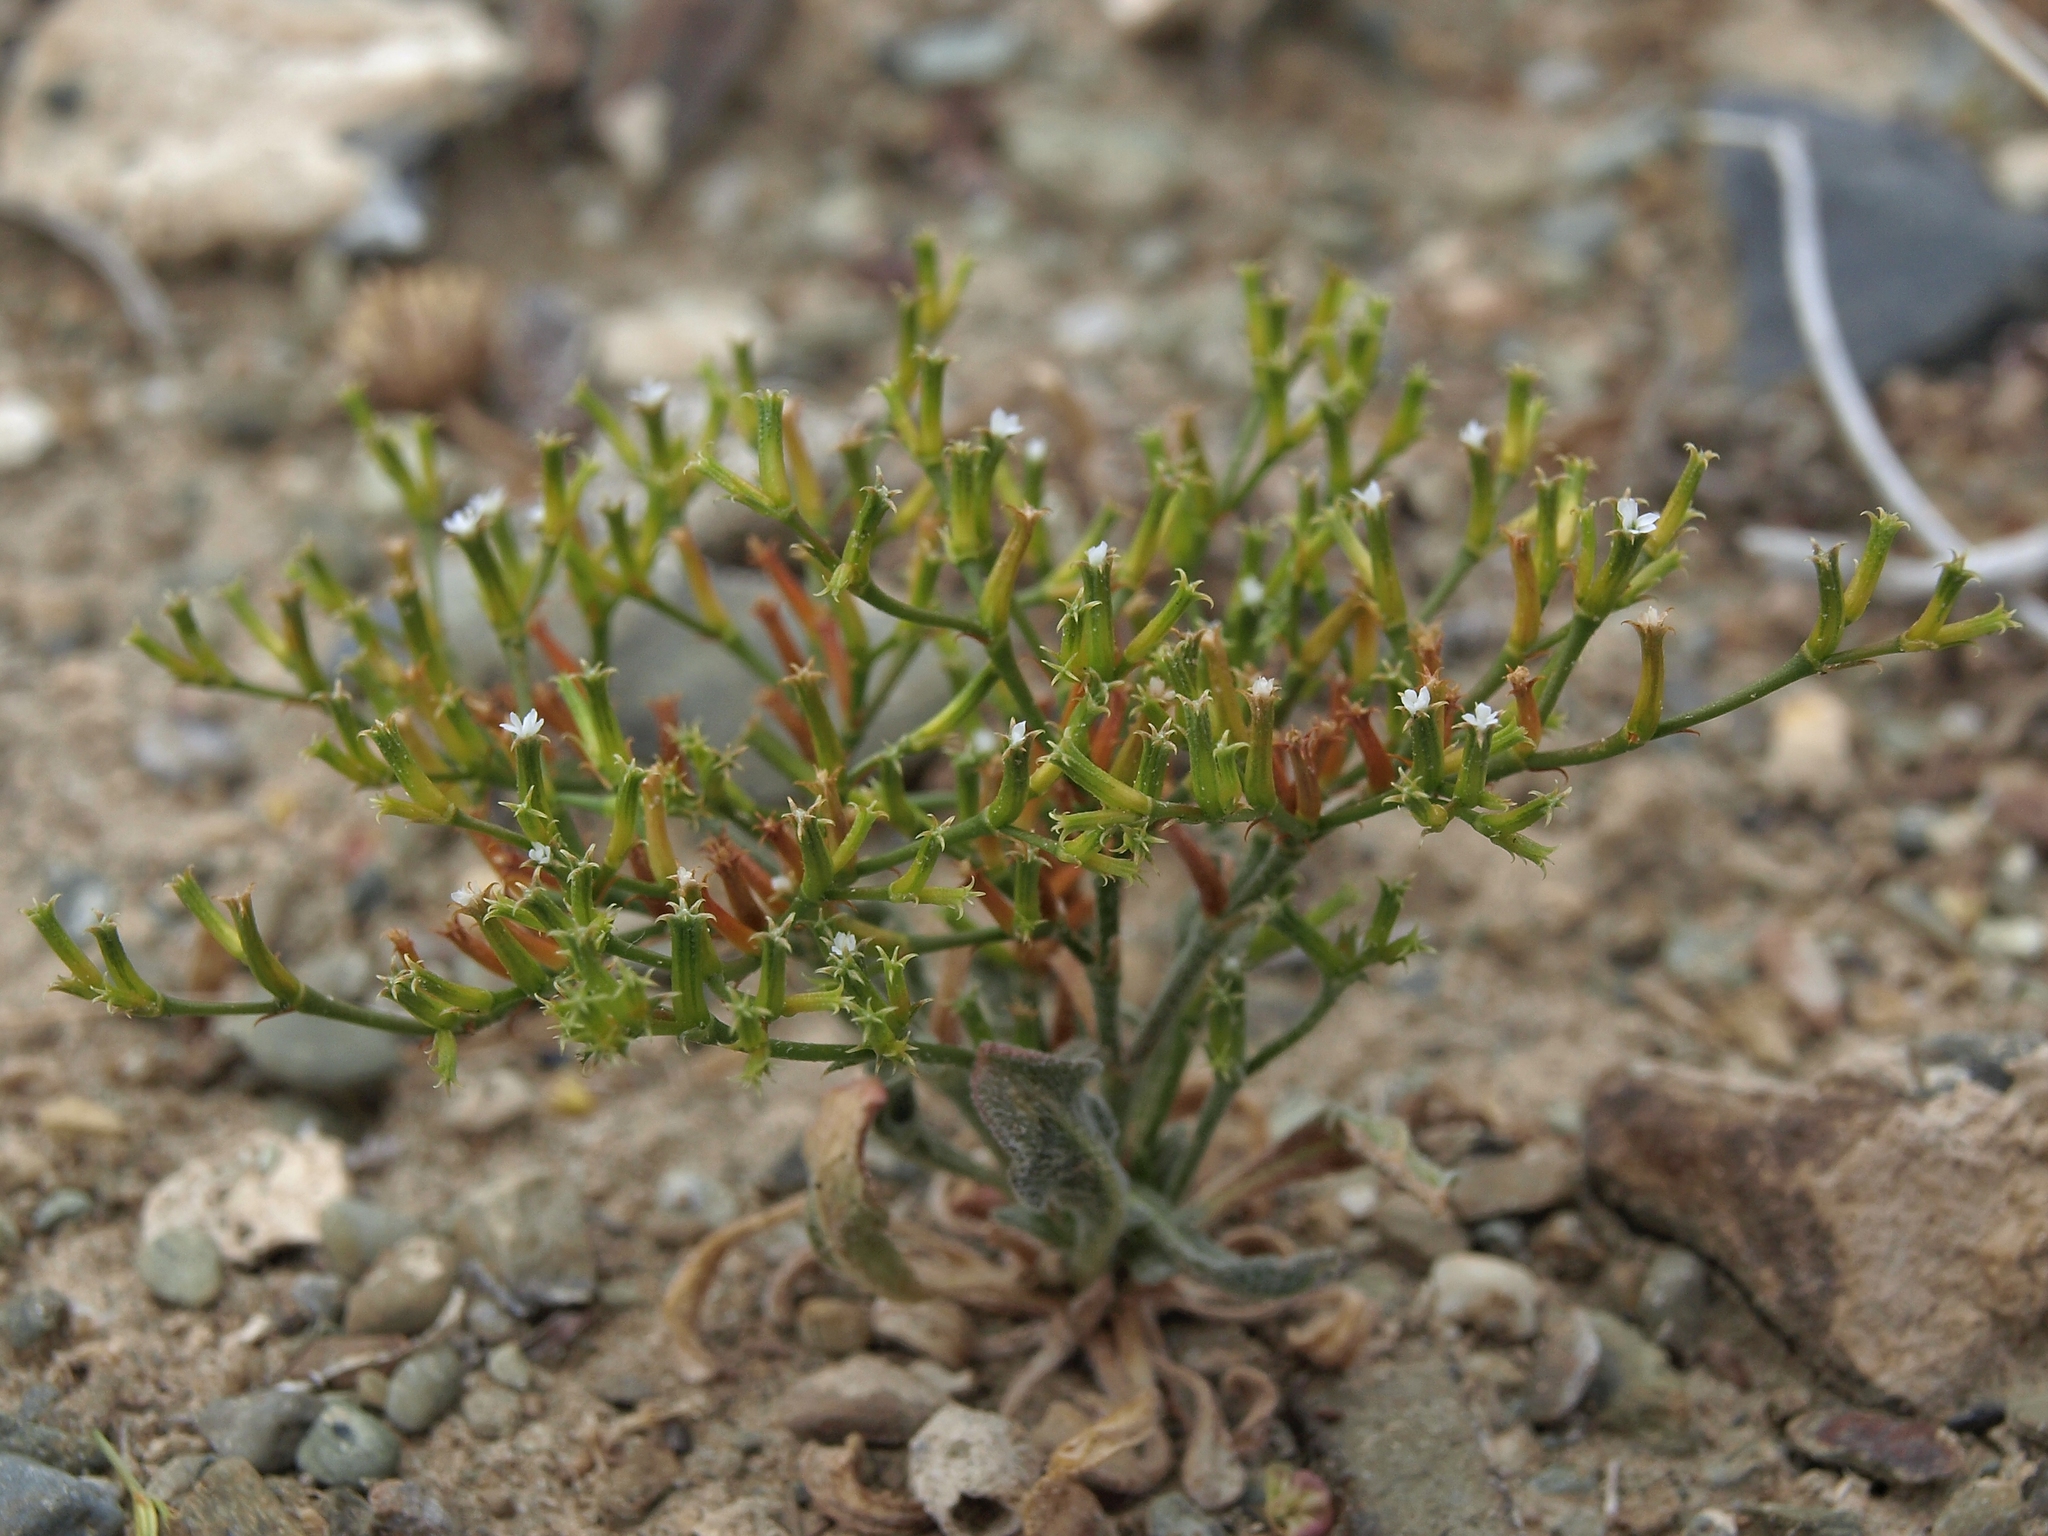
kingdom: Plantae
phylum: Tracheophyta
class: Magnoliopsida
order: Caryophyllales
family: Polygonaceae
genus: Chorizanthe
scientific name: Chorizanthe brevicornu
